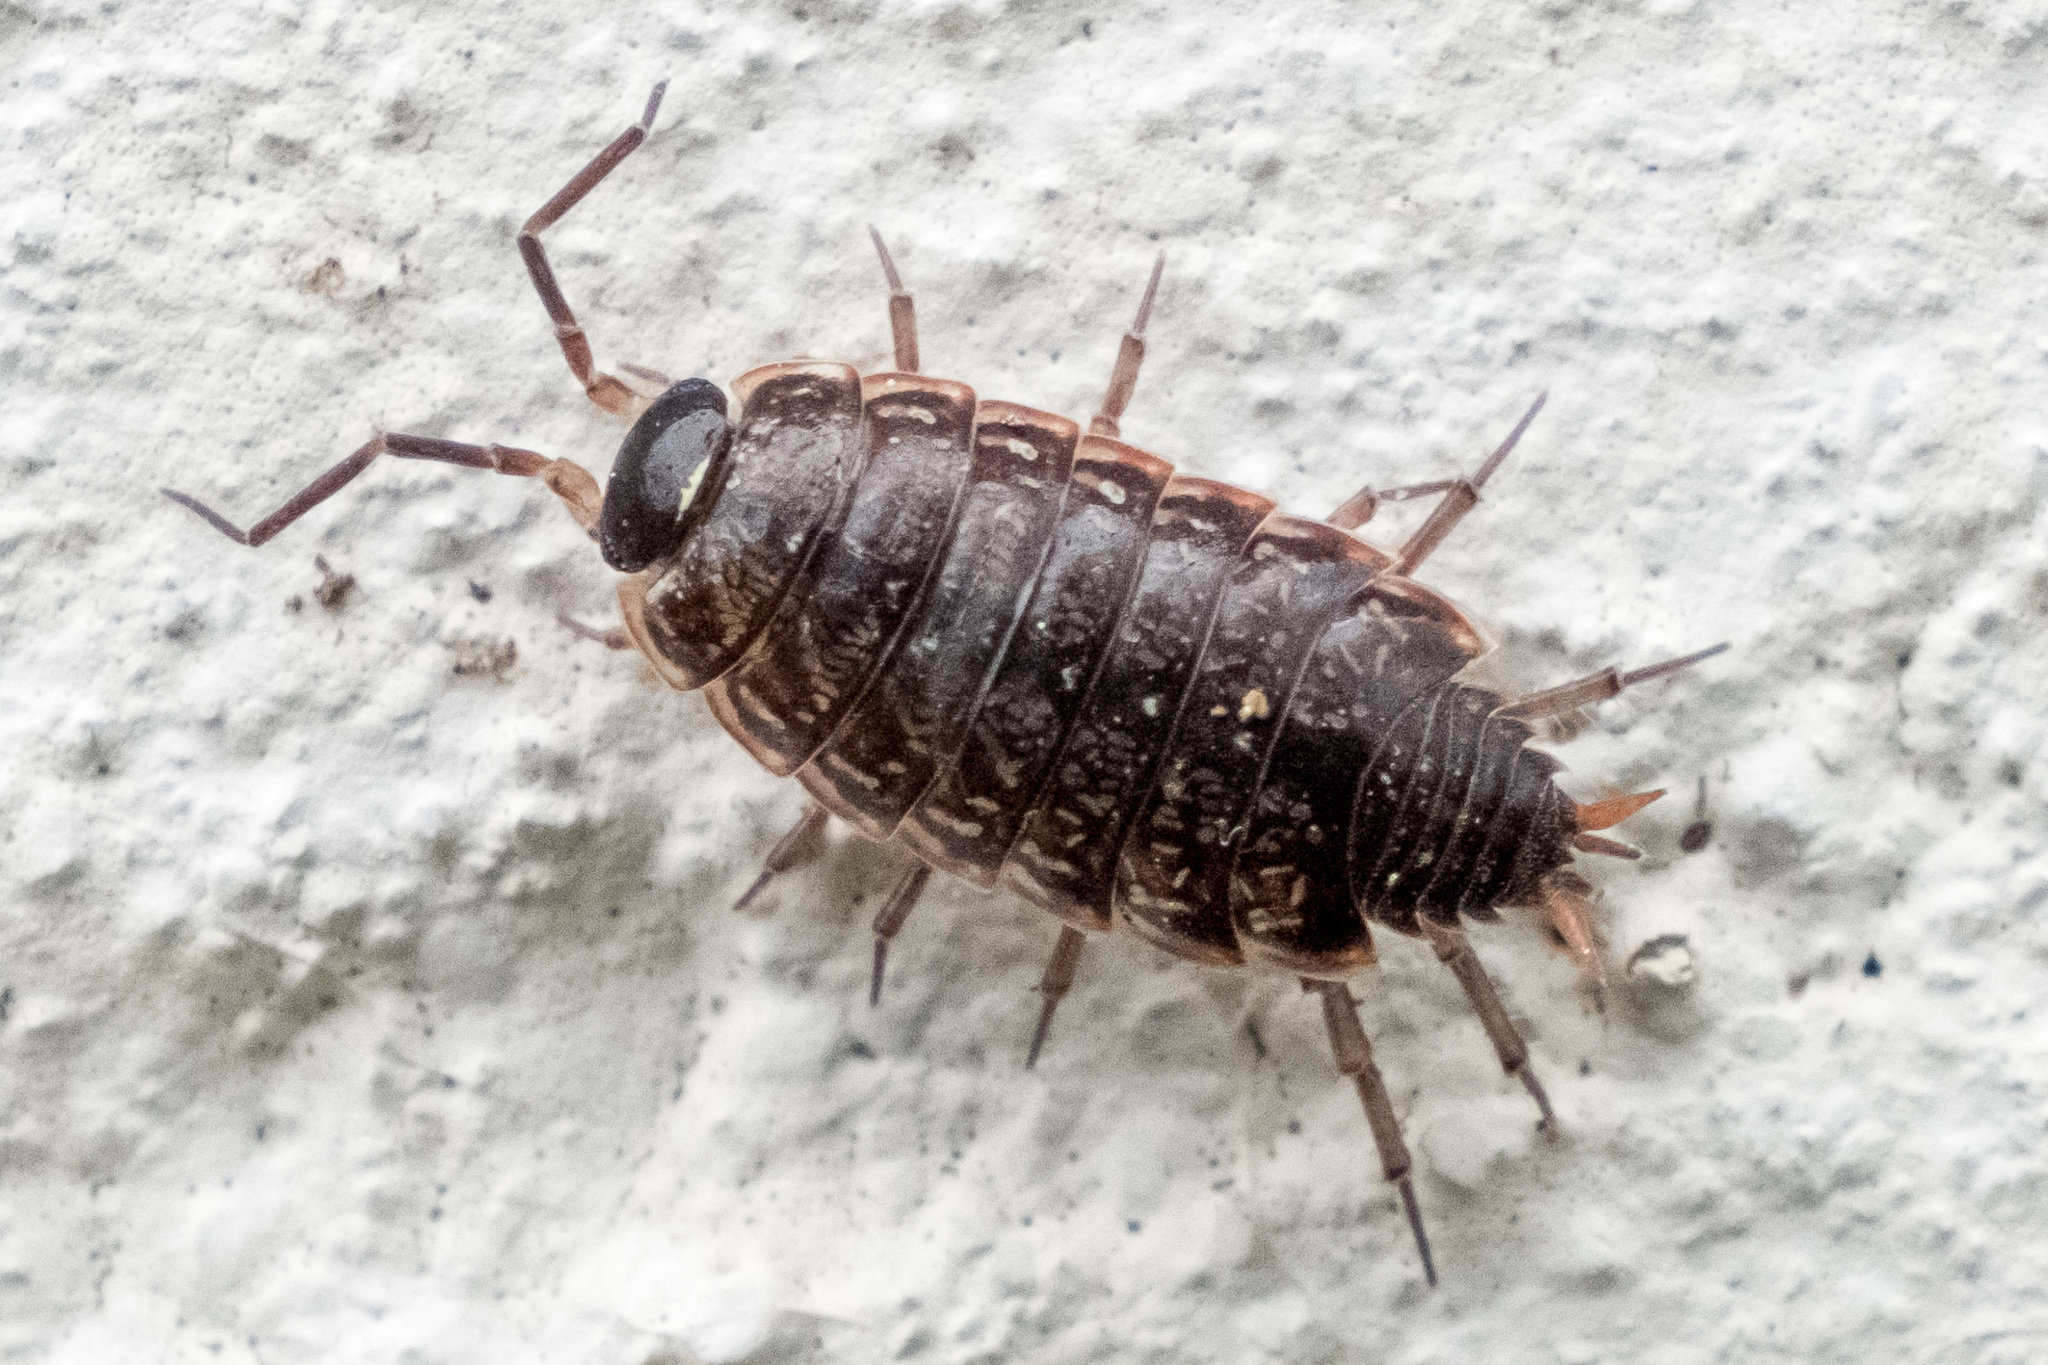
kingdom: Animalia
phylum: Arthropoda
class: Malacostraca
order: Isopoda
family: Philosciidae
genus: Philoscia
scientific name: Philoscia muscorum
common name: Common striped woodlouse
